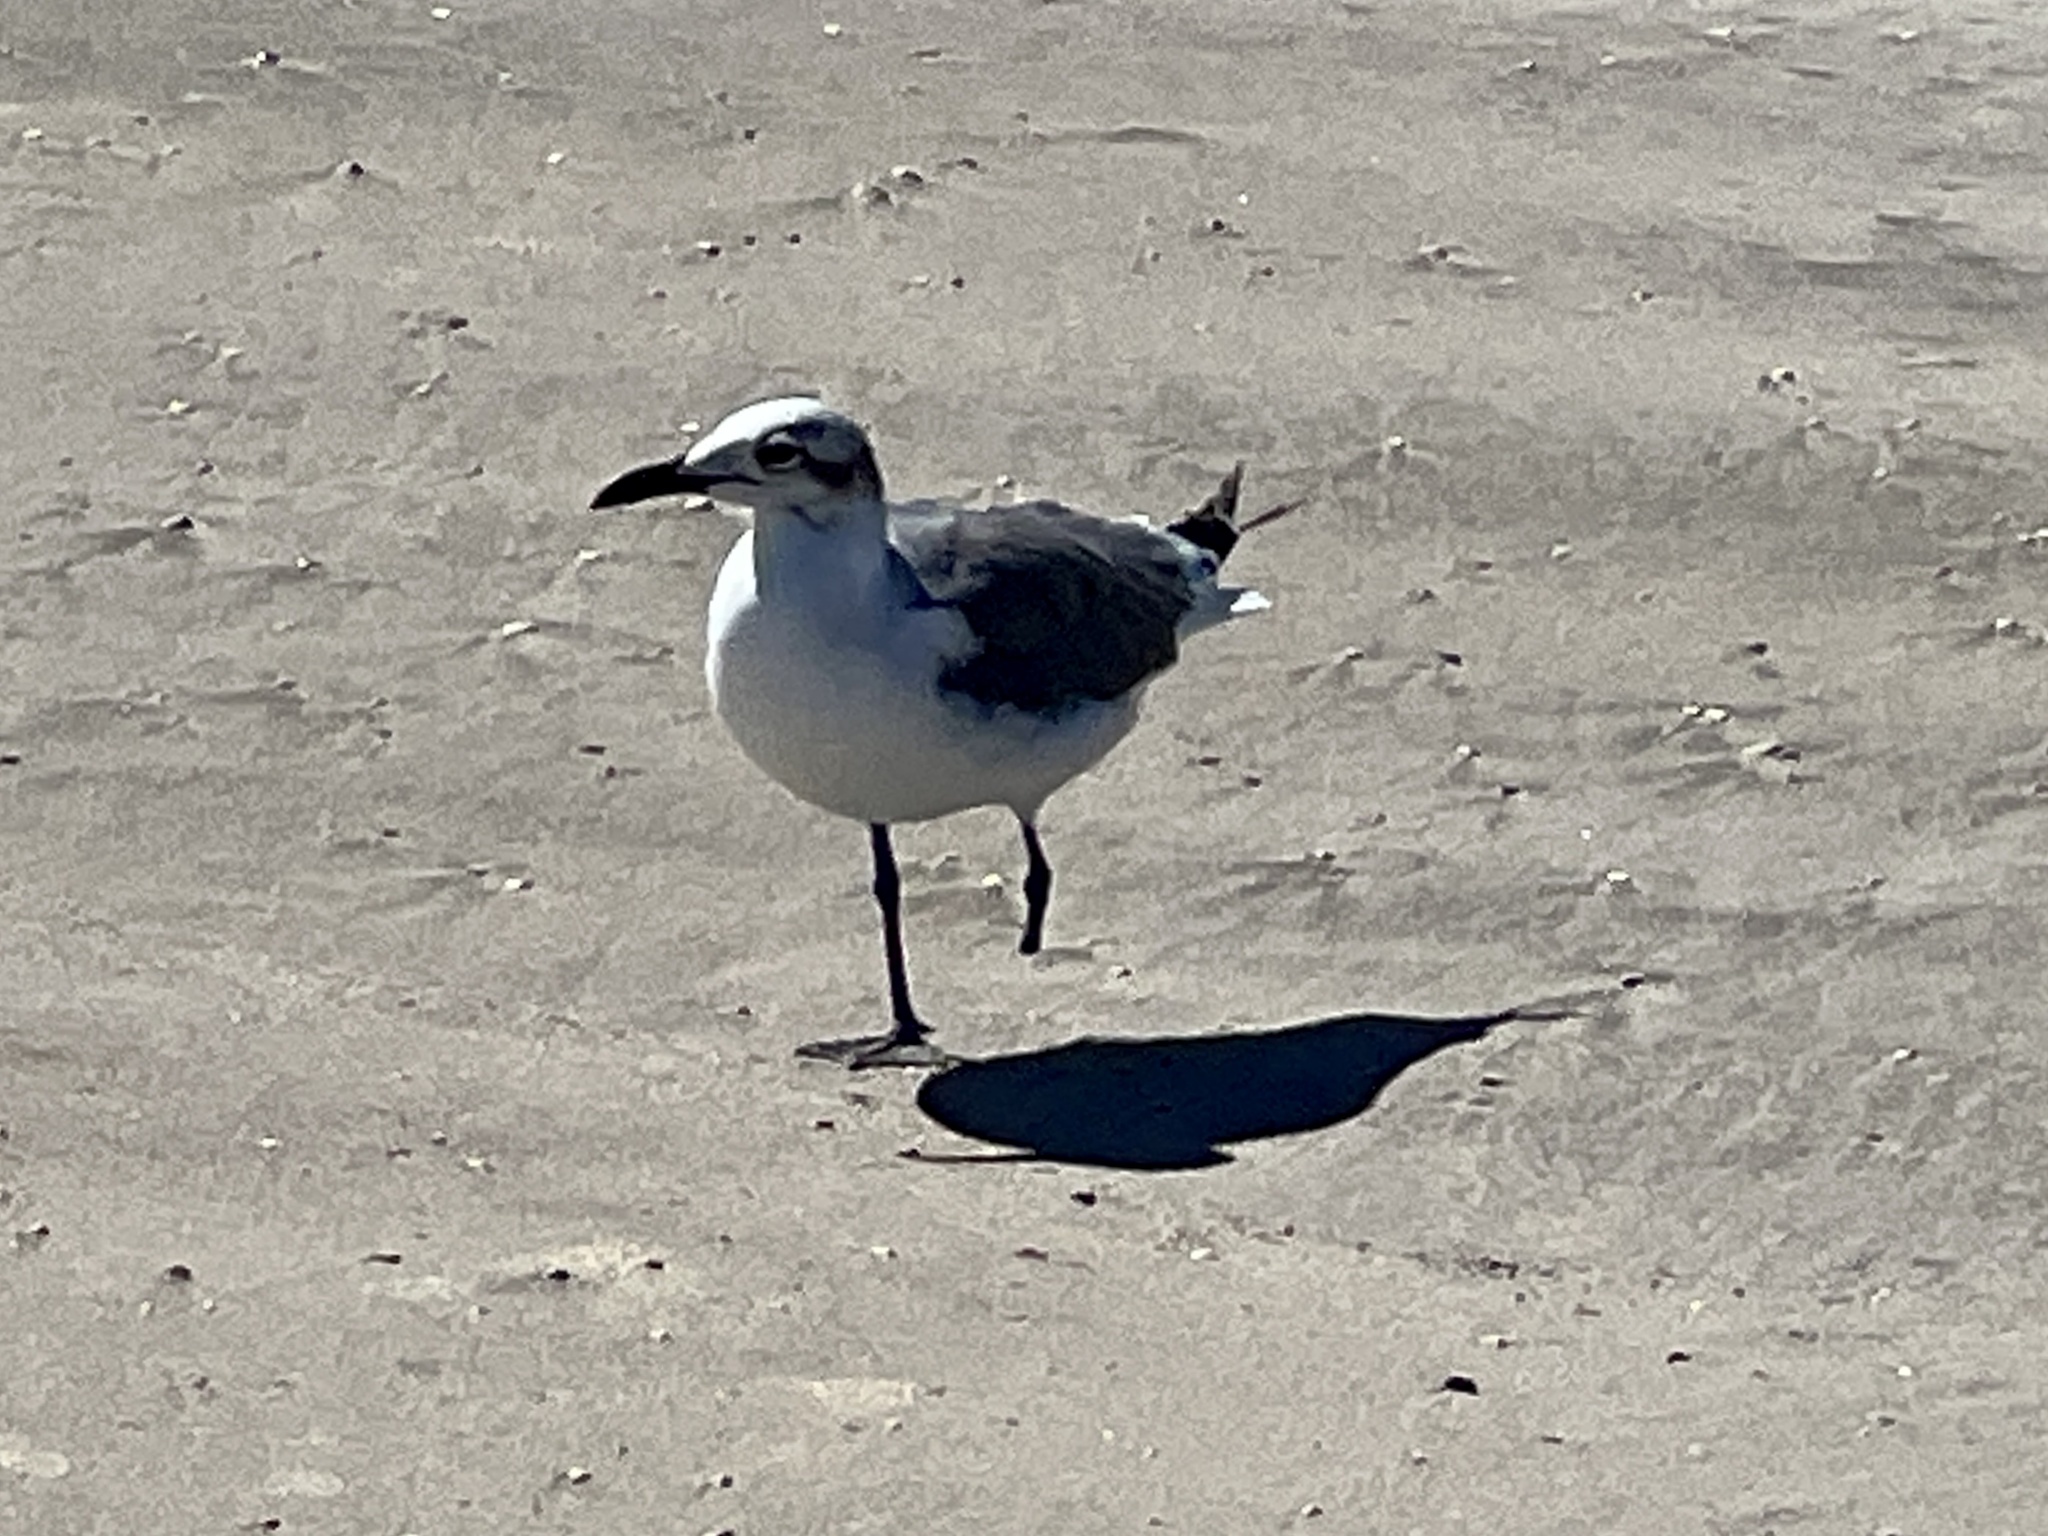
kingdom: Animalia
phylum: Chordata
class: Aves
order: Charadriiformes
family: Laridae
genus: Leucophaeus
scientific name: Leucophaeus atricilla
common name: Laughing gull
